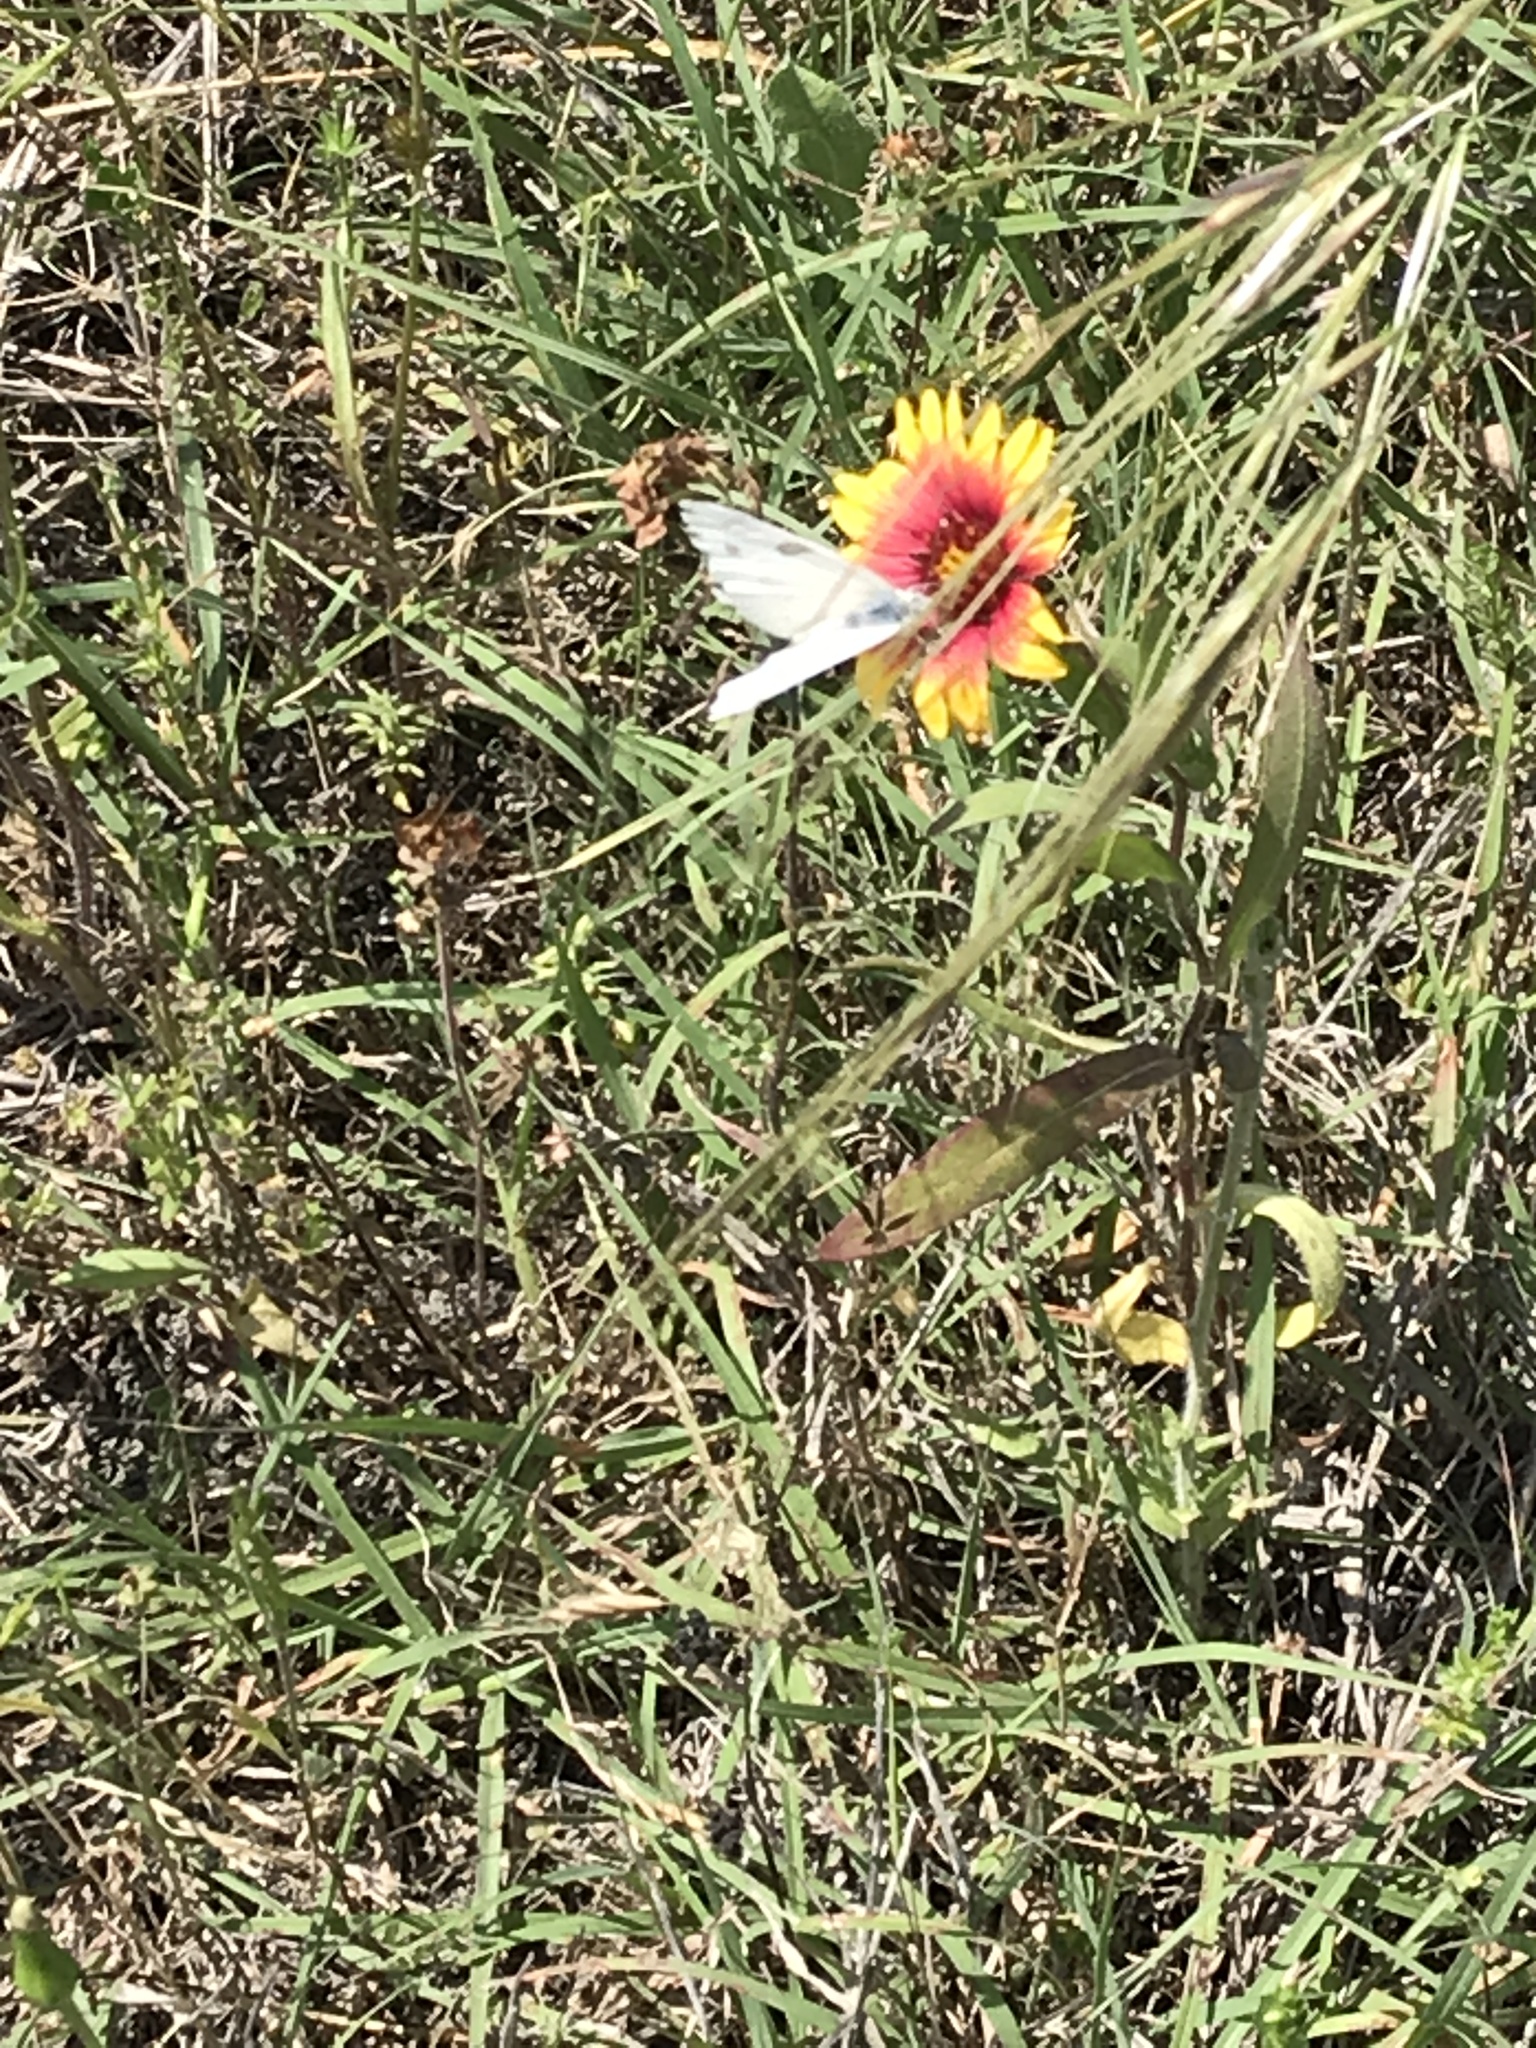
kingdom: Animalia
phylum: Arthropoda
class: Insecta
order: Lepidoptera
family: Pieridae
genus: Pontia
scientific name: Pontia protodice
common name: Checkered white
